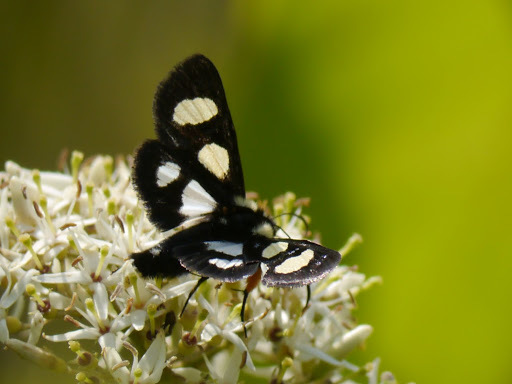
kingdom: Animalia
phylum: Arthropoda
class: Insecta
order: Lepidoptera
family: Noctuidae
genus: Alypia
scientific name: Alypia octomaculata
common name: Eight-spotted forester
